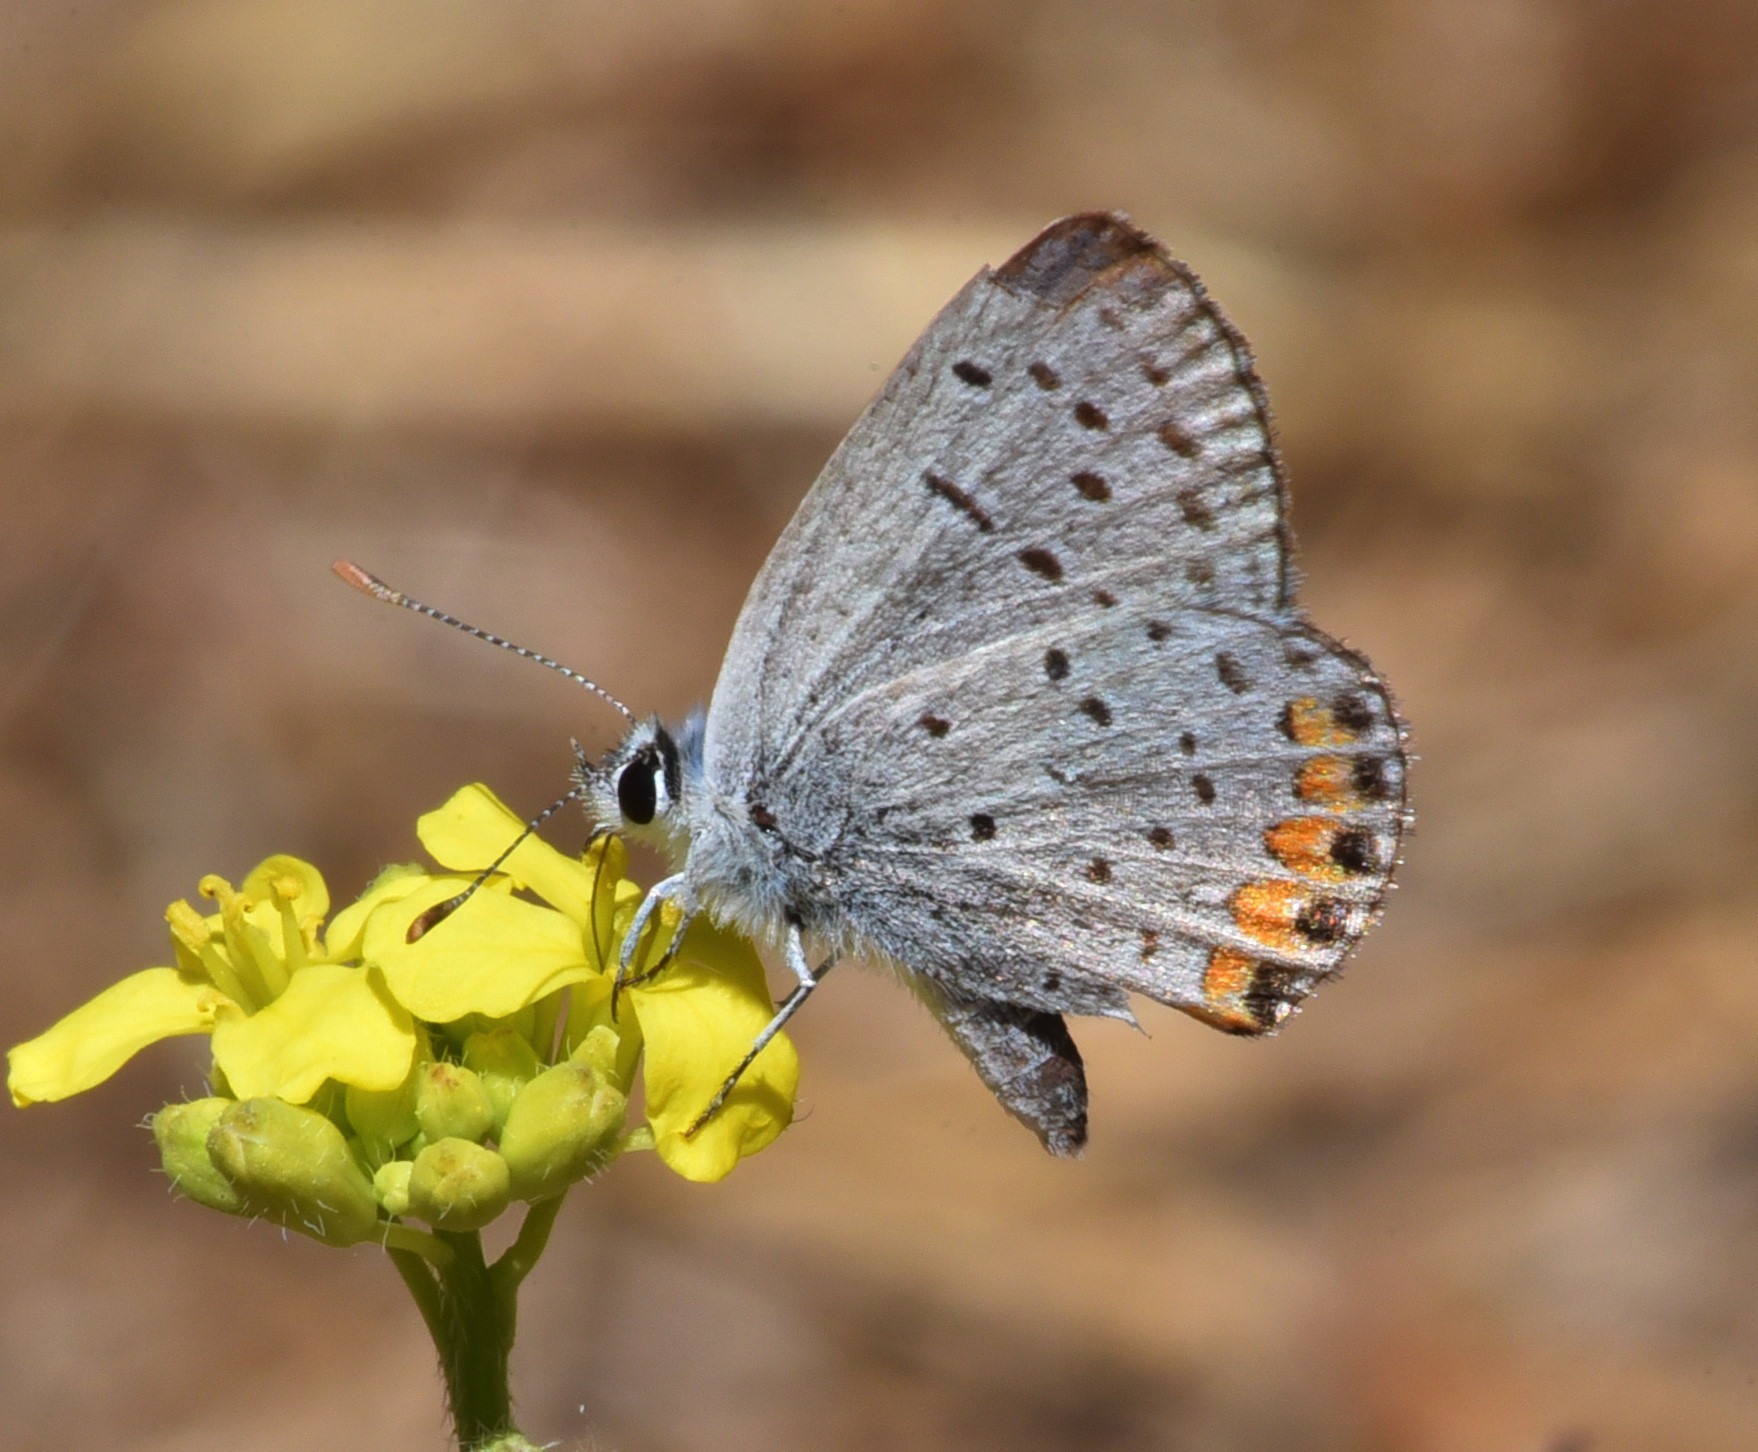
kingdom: Animalia
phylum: Arthropoda
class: Insecta
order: Lepidoptera
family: Lycaenidae
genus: Icaricia
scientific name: Icaricia acmon
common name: Acmon blue
